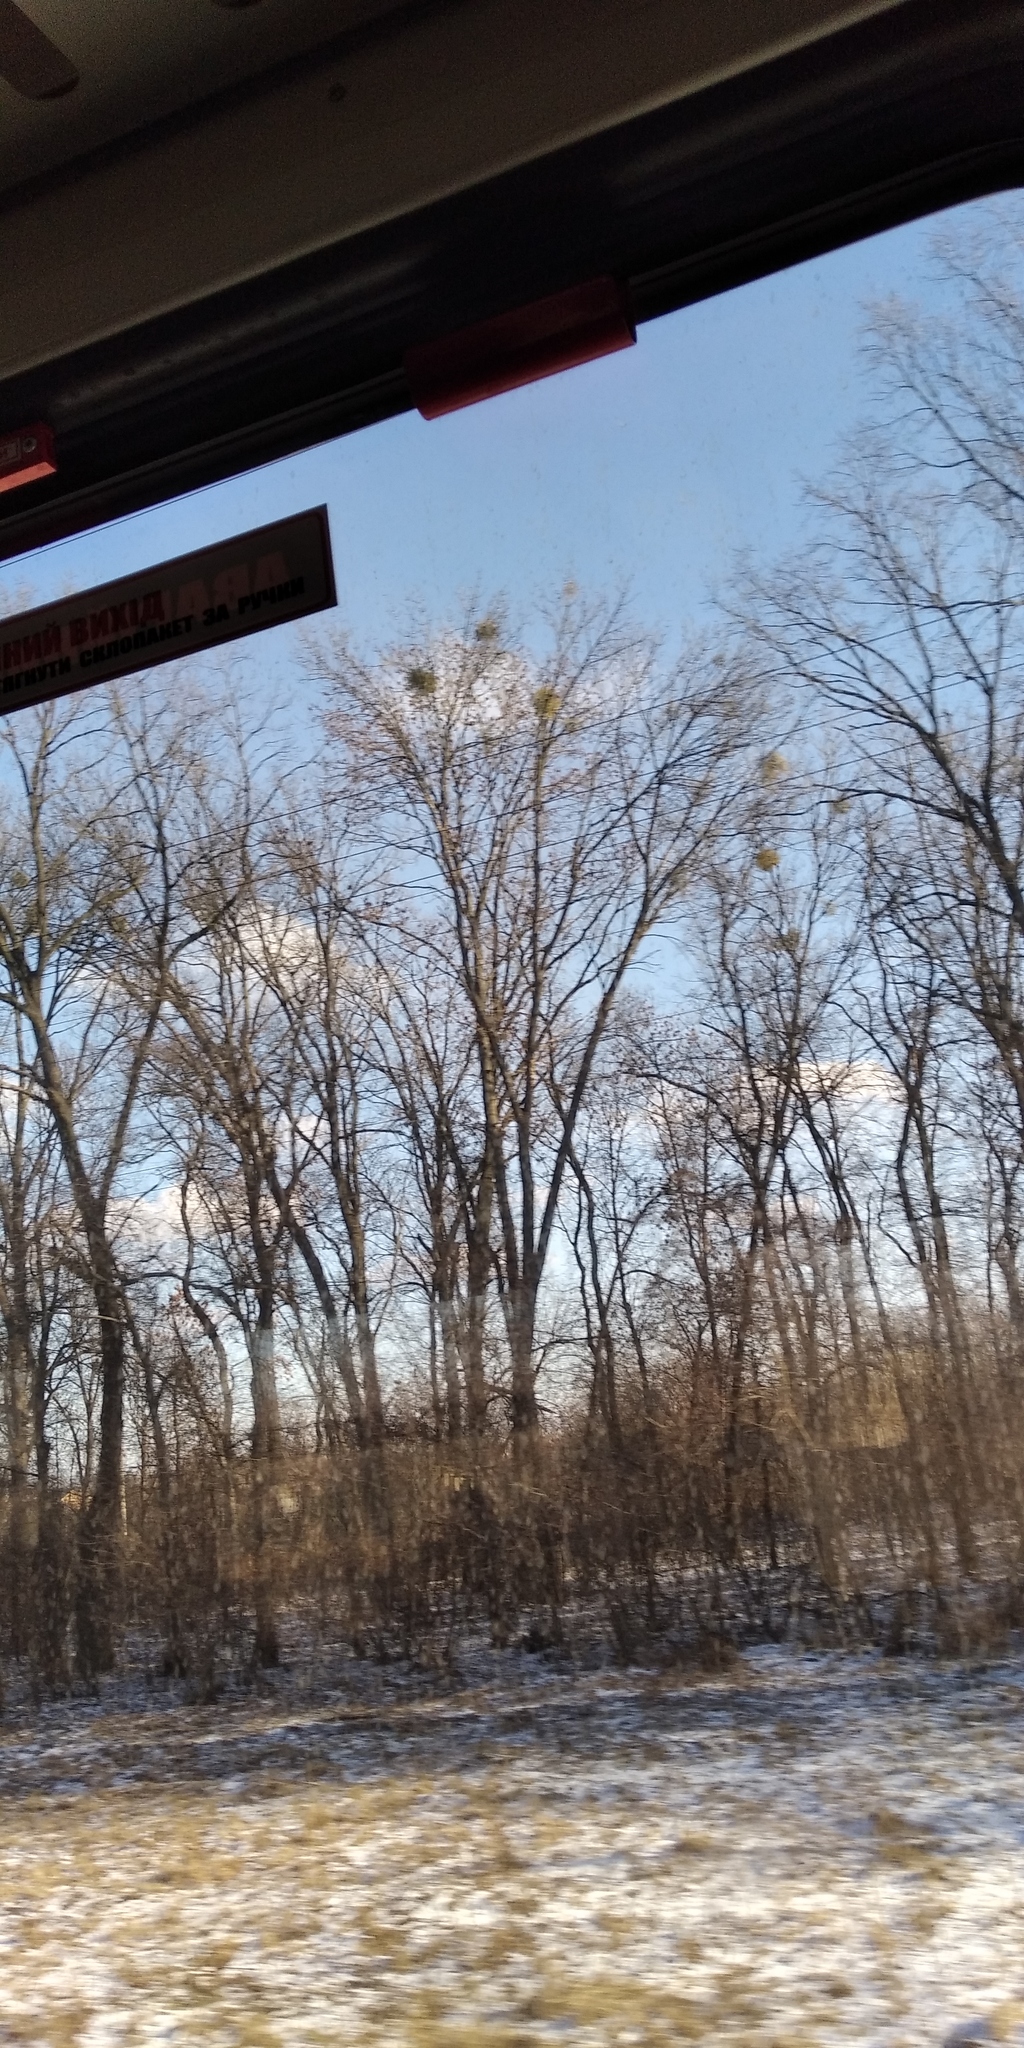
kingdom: Plantae
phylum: Tracheophyta
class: Magnoliopsida
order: Santalales
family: Viscaceae
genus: Viscum
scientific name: Viscum album
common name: Mistletoe
